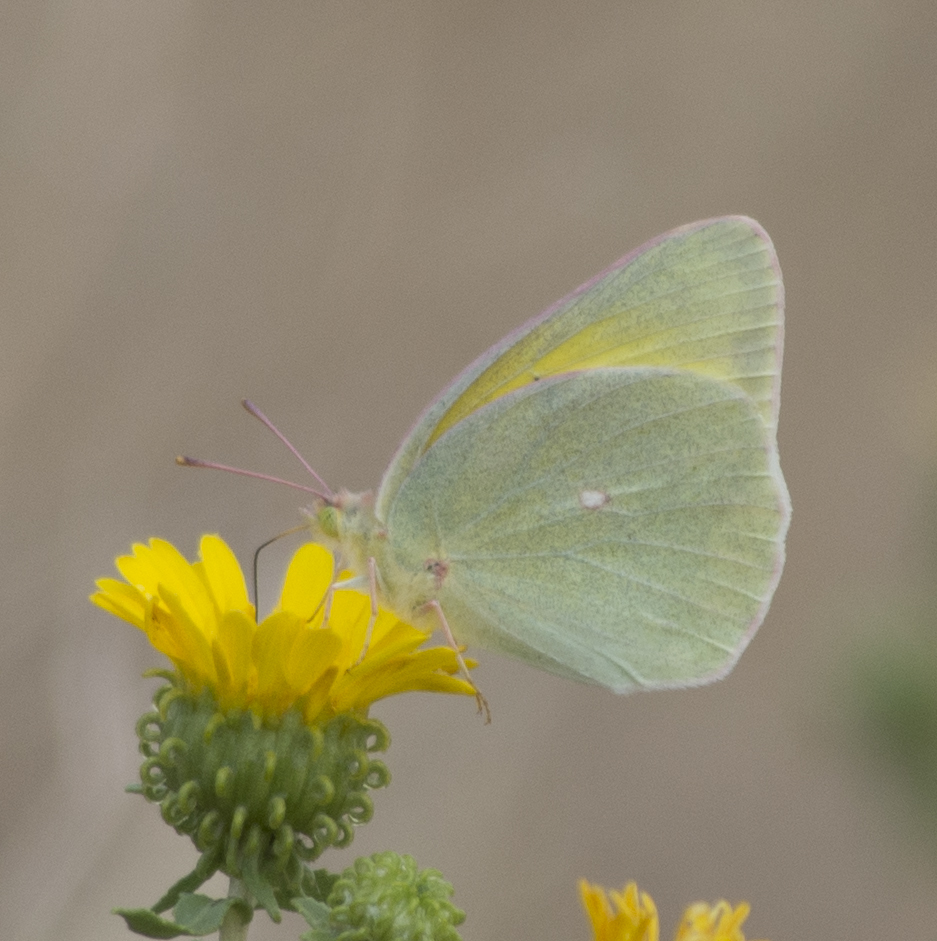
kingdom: Animalia
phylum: Arthropoda
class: Insecta
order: Lepidoptera
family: Pieridae
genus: Colias
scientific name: Colias alexandra
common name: Alexandra sulphur
